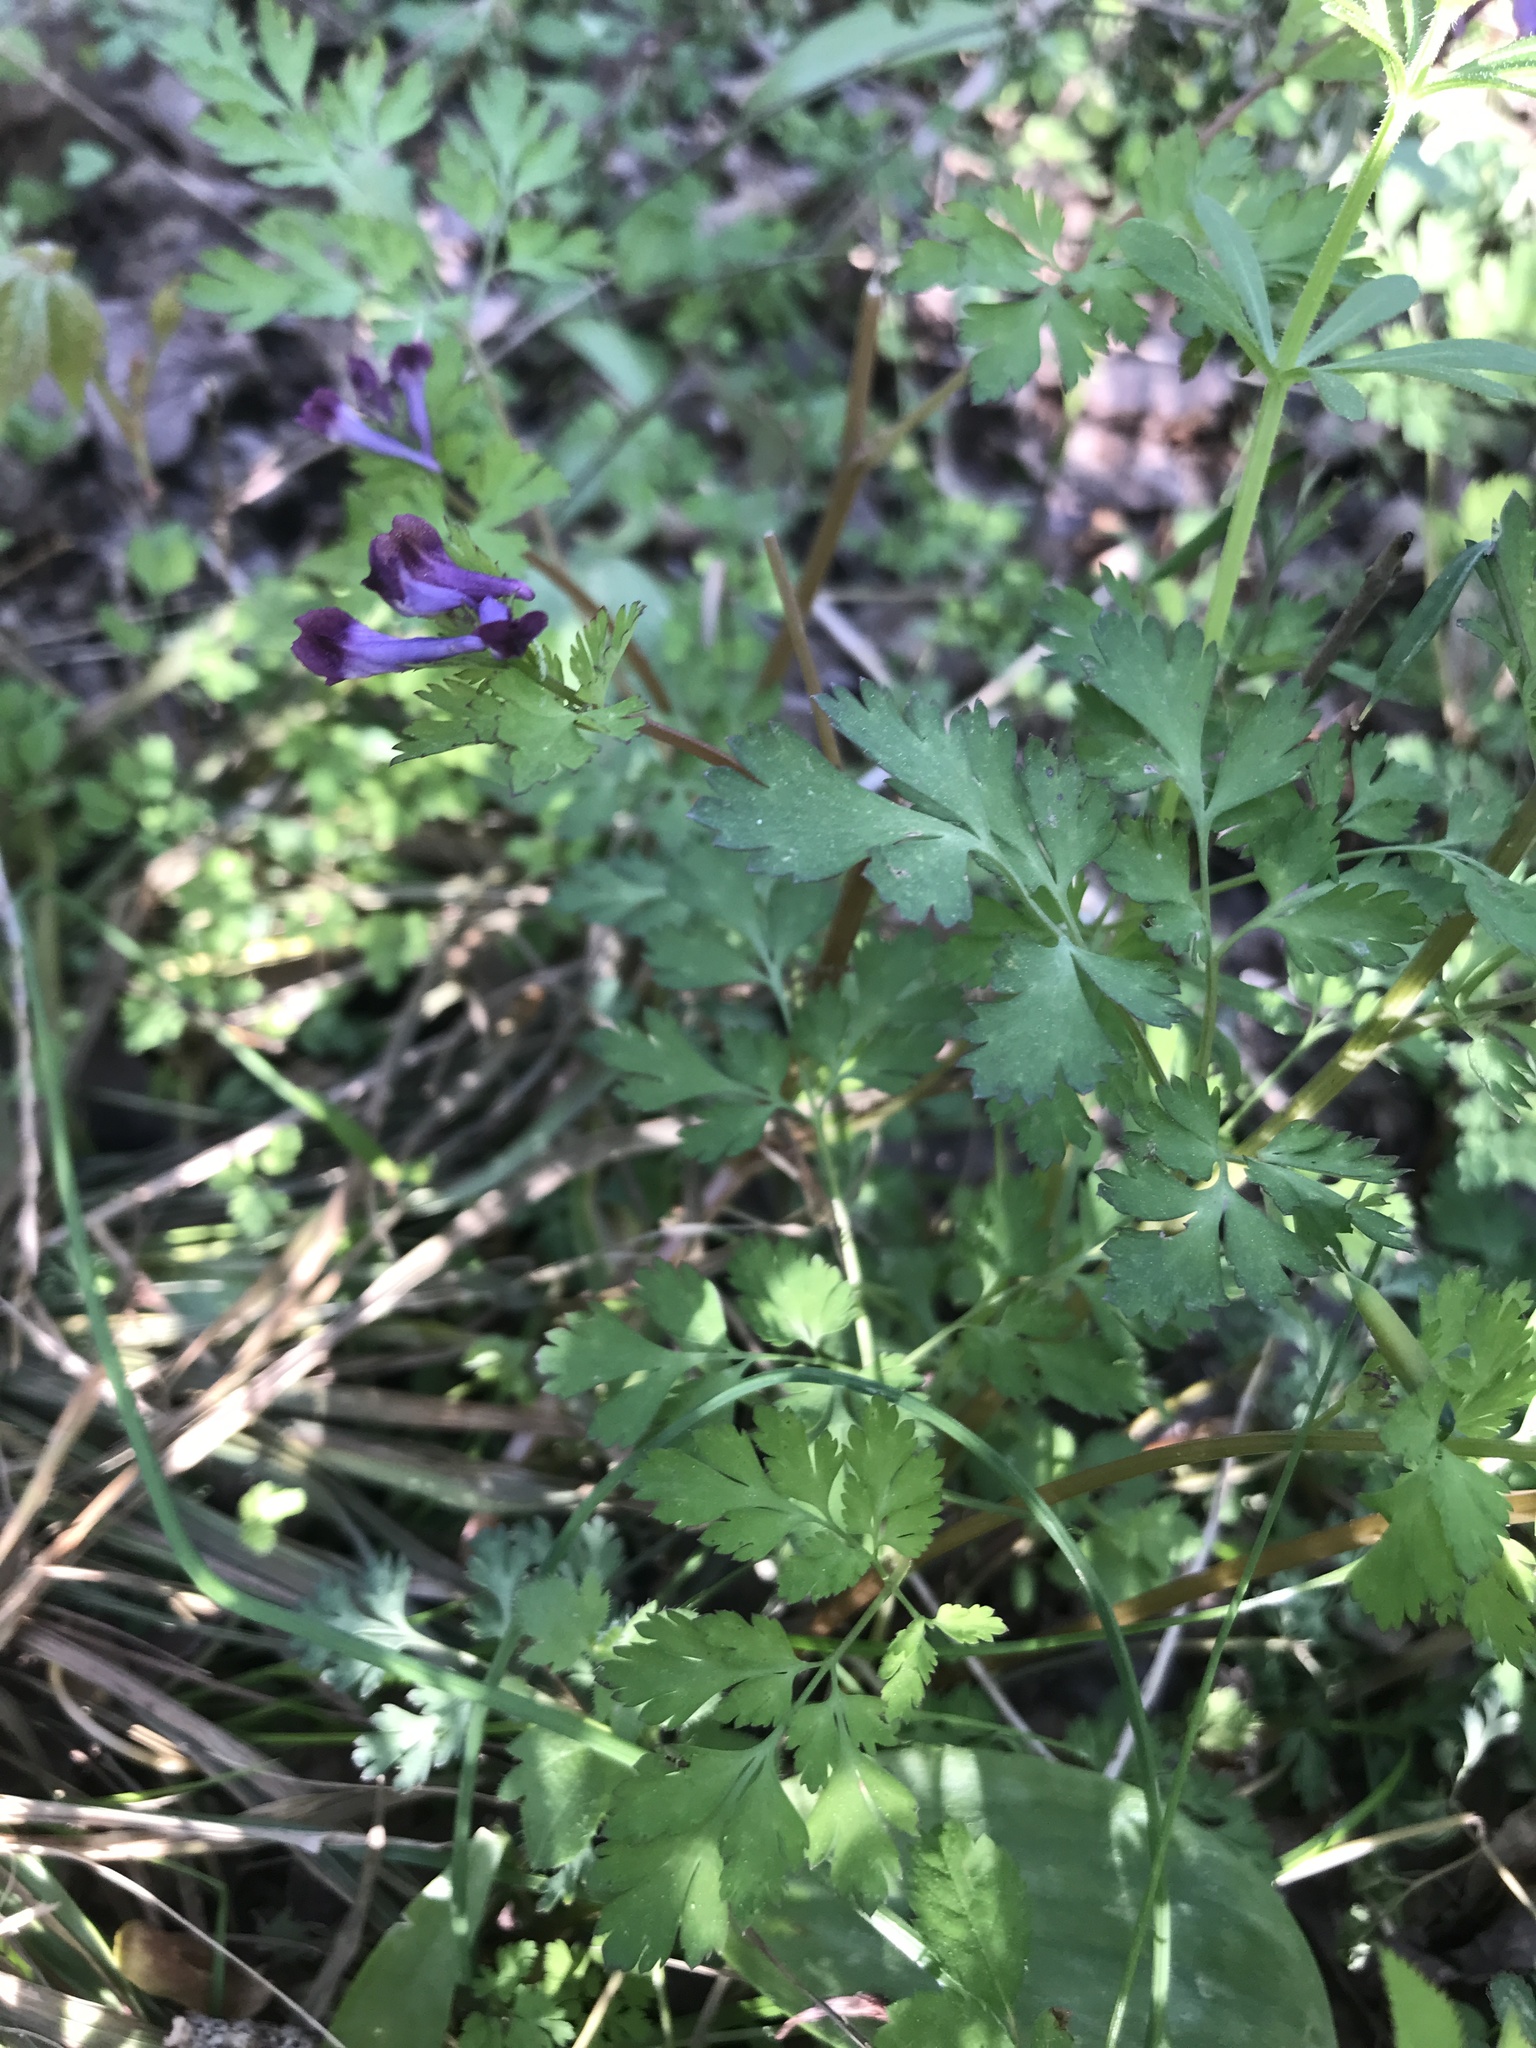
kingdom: Plantae
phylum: Tracheophyta
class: Magnoliopsida
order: Ranunculales
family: Papaveraceae
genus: Corydalis
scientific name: Corydalis incisa
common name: Incised fumewort
